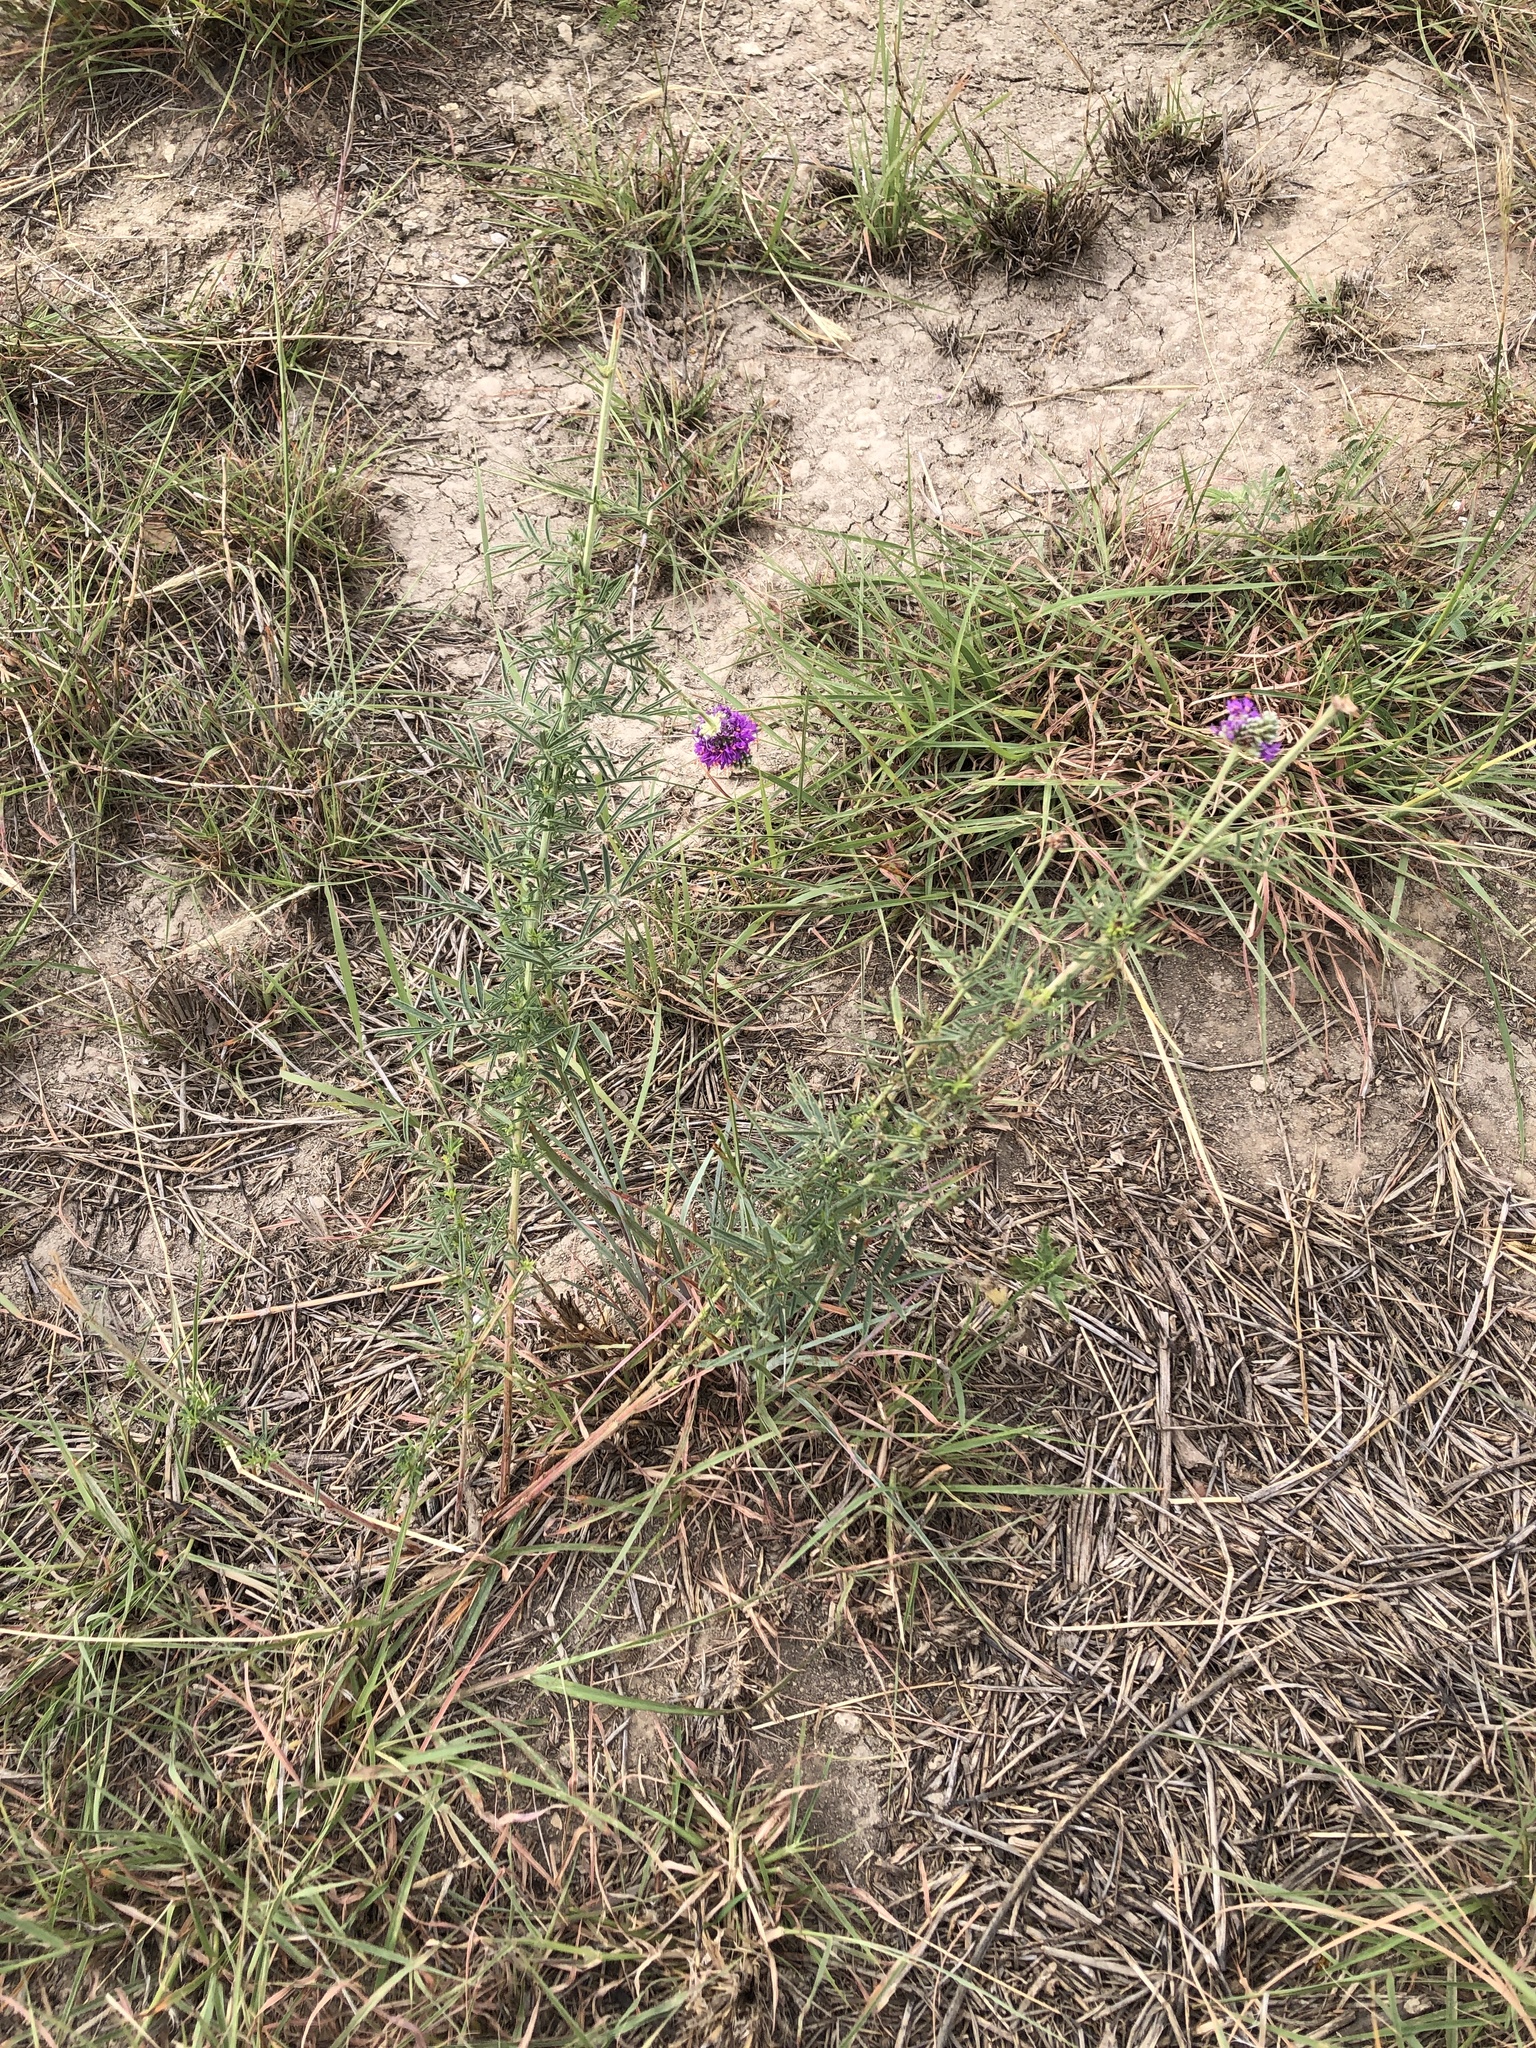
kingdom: Plantae
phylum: Tracheophyta
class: Magnoliopsida
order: Fabales
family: Fabaceae
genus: Dalea
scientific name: Dalea compacta
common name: Compact prairie-clover
